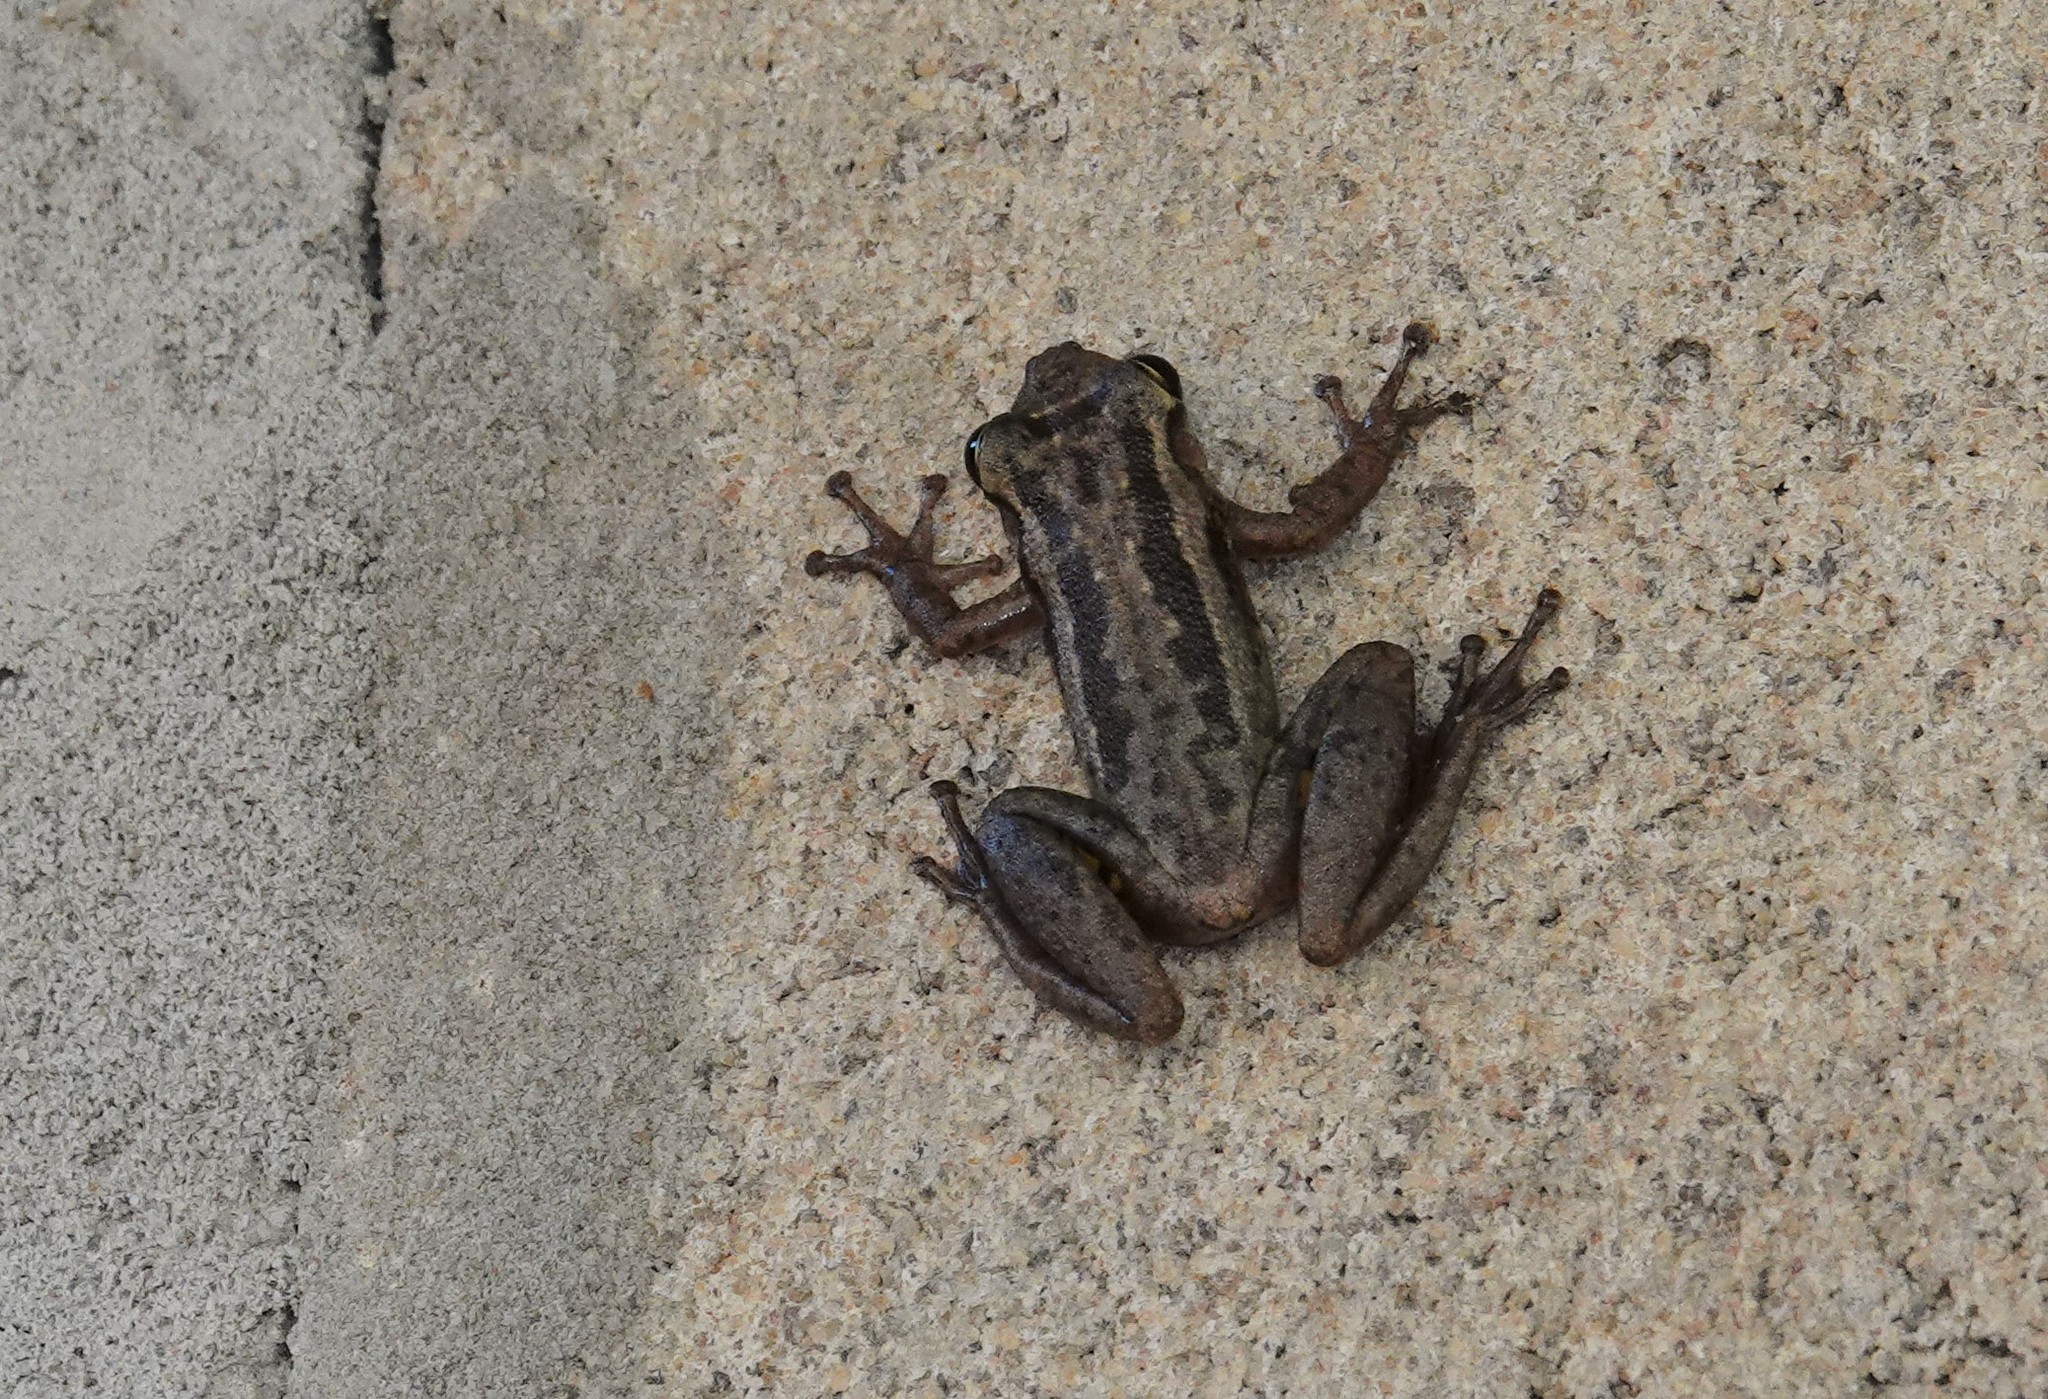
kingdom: Animalia
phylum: Chordata
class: Amphibia
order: Anura
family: Hylidae
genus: Scinax
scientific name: Scinax ruber
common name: Red snouted treefrog
